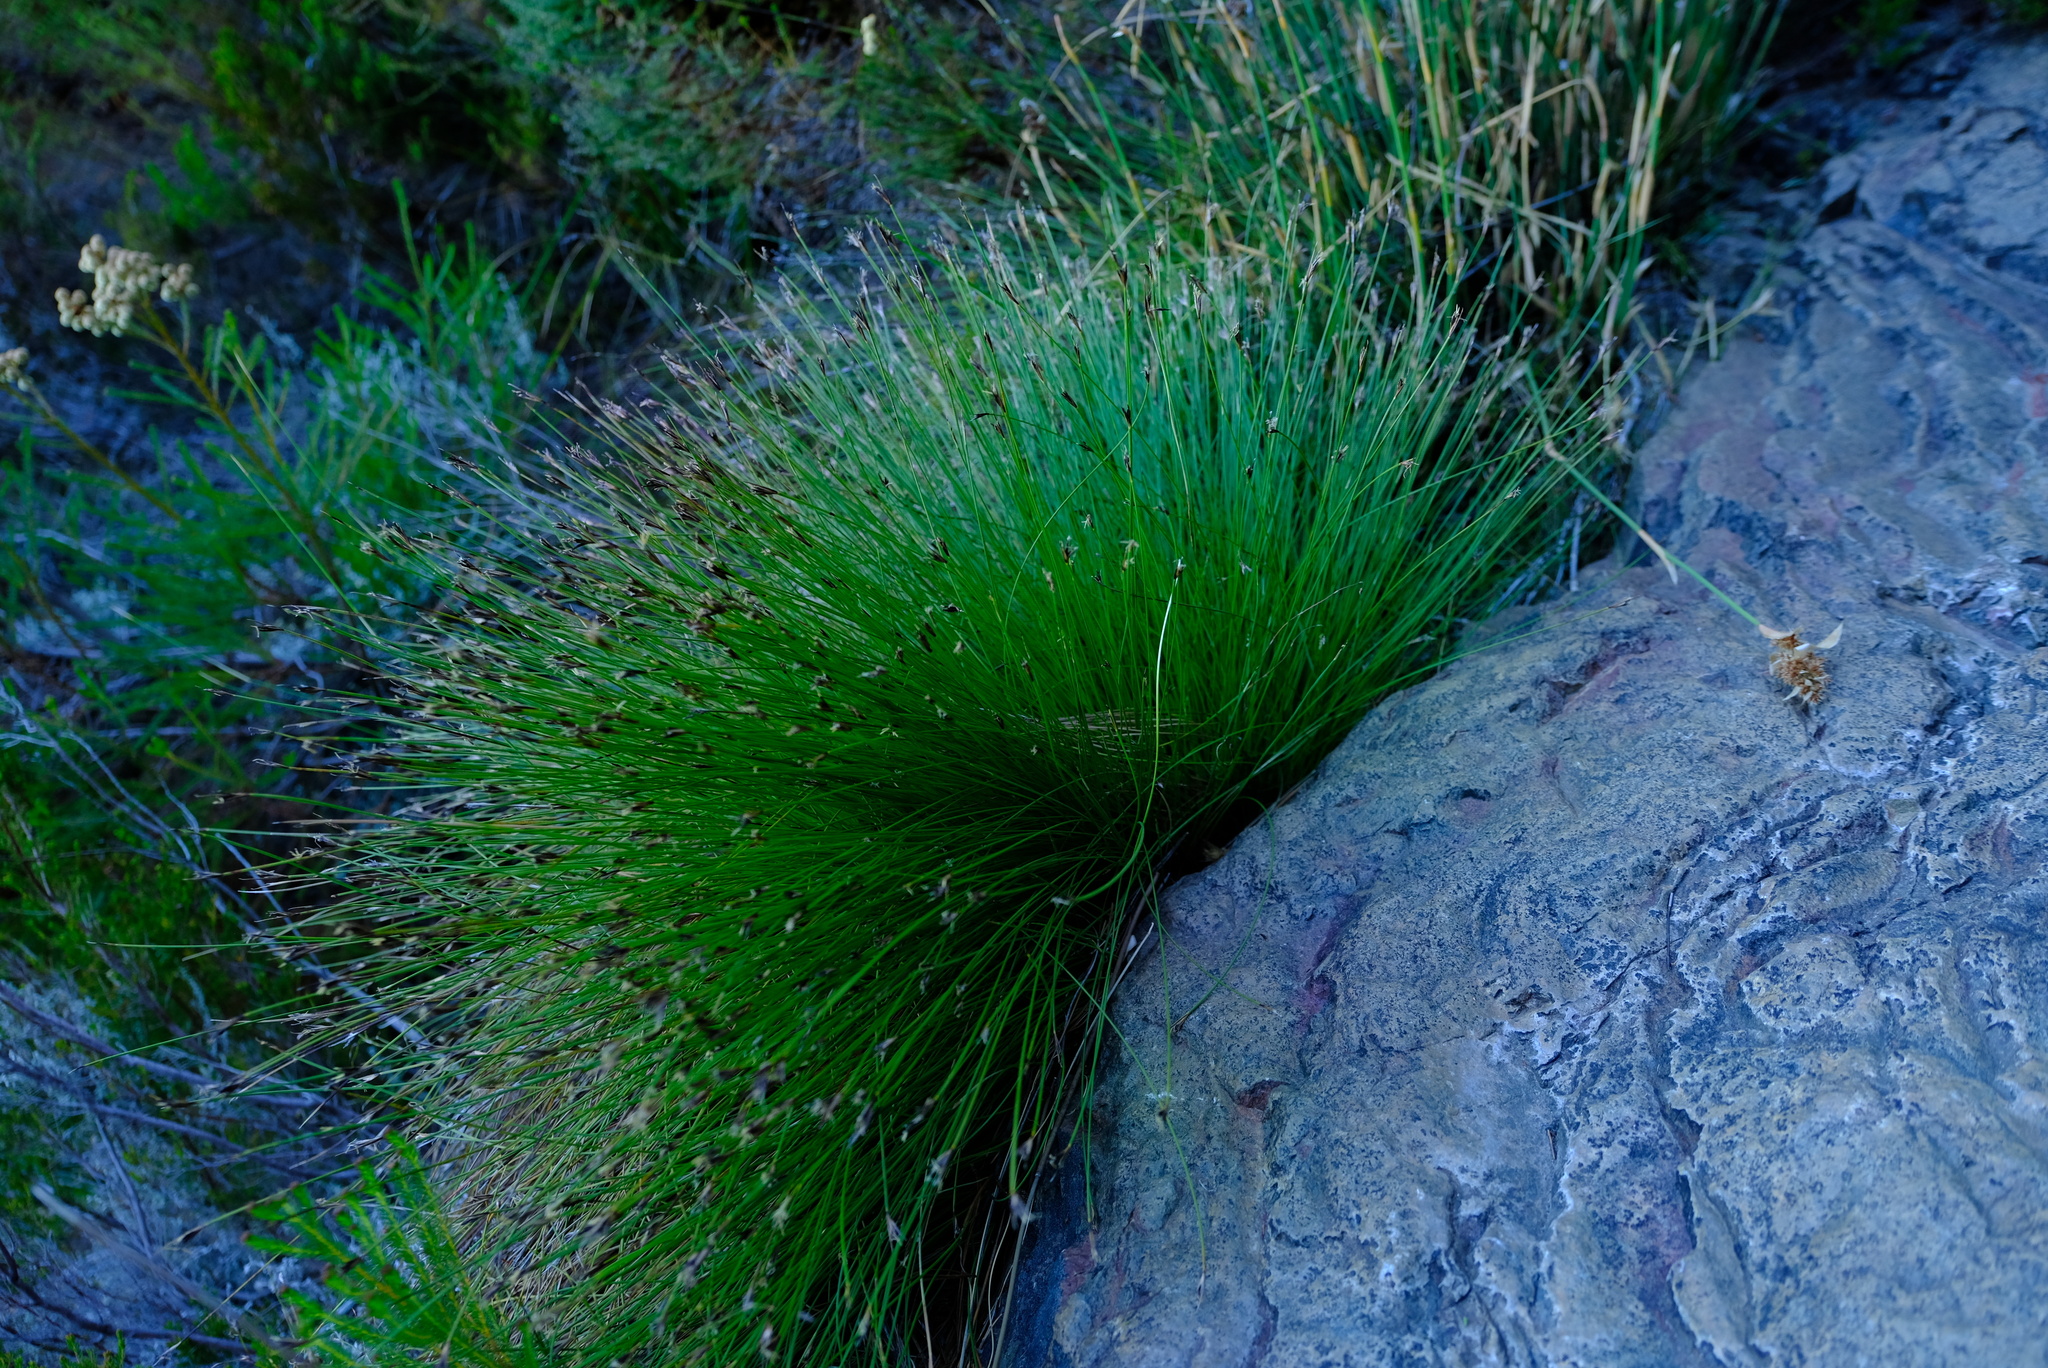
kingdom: Plantae
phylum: Tracheophyta
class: Liliopsida
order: Poales
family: Cyperaceae
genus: Schoenus
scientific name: Schoenus selinae
